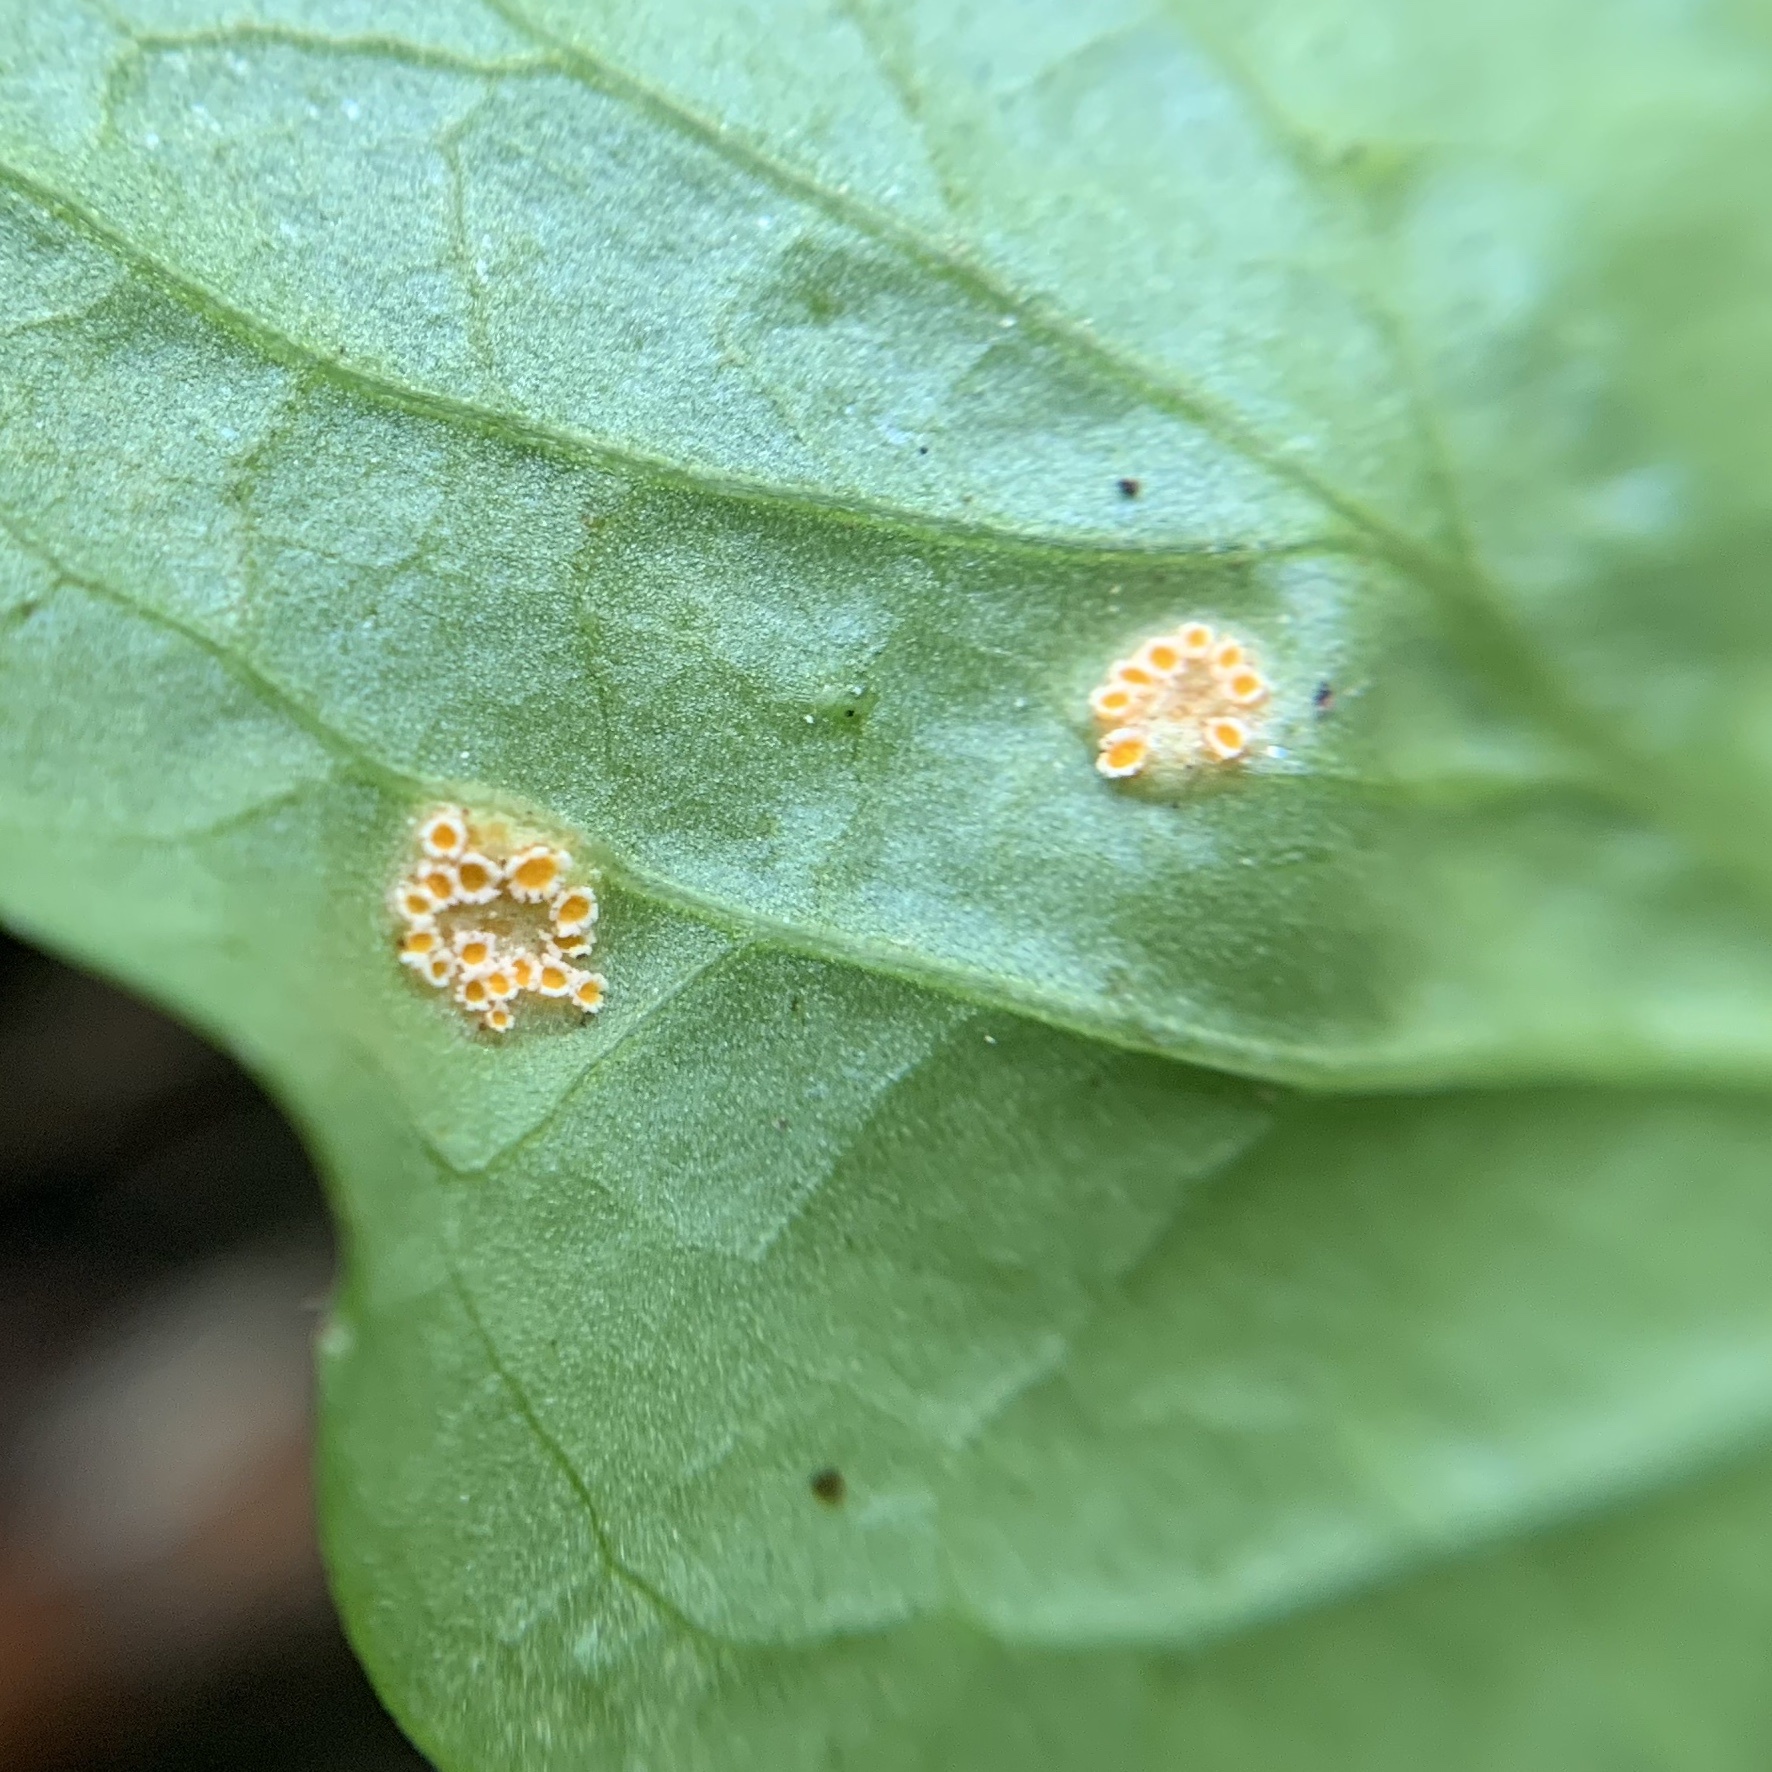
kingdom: Fungi
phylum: Basidiomycota
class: Pucciniomycetes
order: Pucciniales
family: Pucciniaceae
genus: Puccinia
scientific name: Puccinia violae
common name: Violet rust
